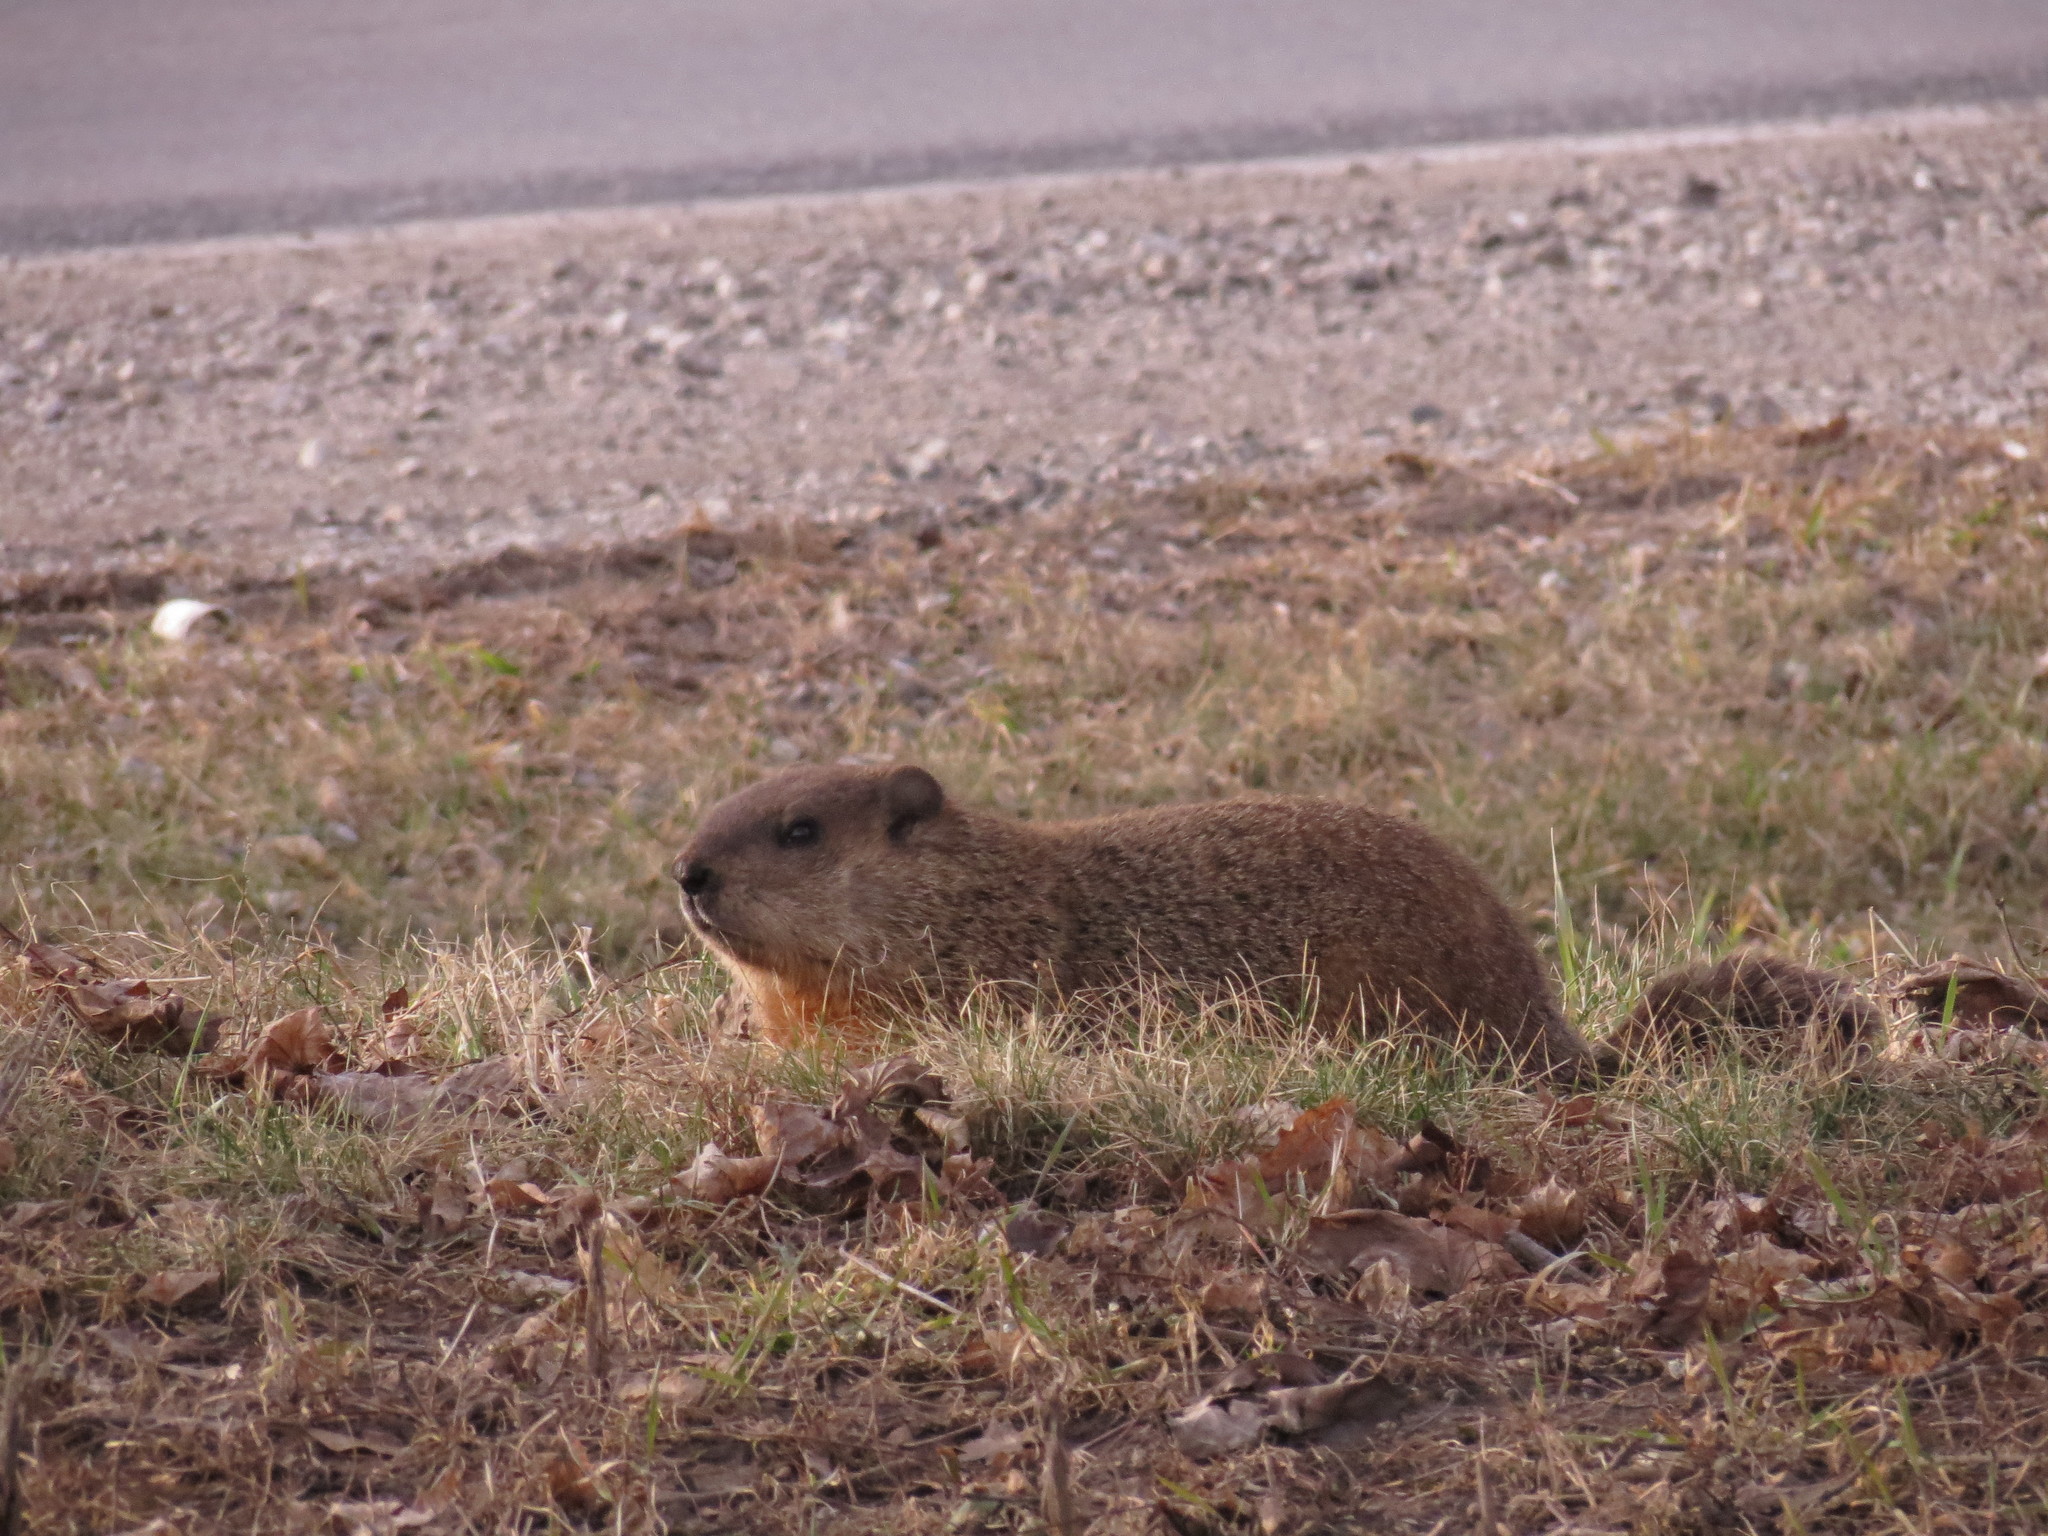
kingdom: Animalia
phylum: Chordata
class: Mammalia
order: Rodentia
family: Sciuridae
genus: Marmota
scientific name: Marmota monax
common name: Groundhog
